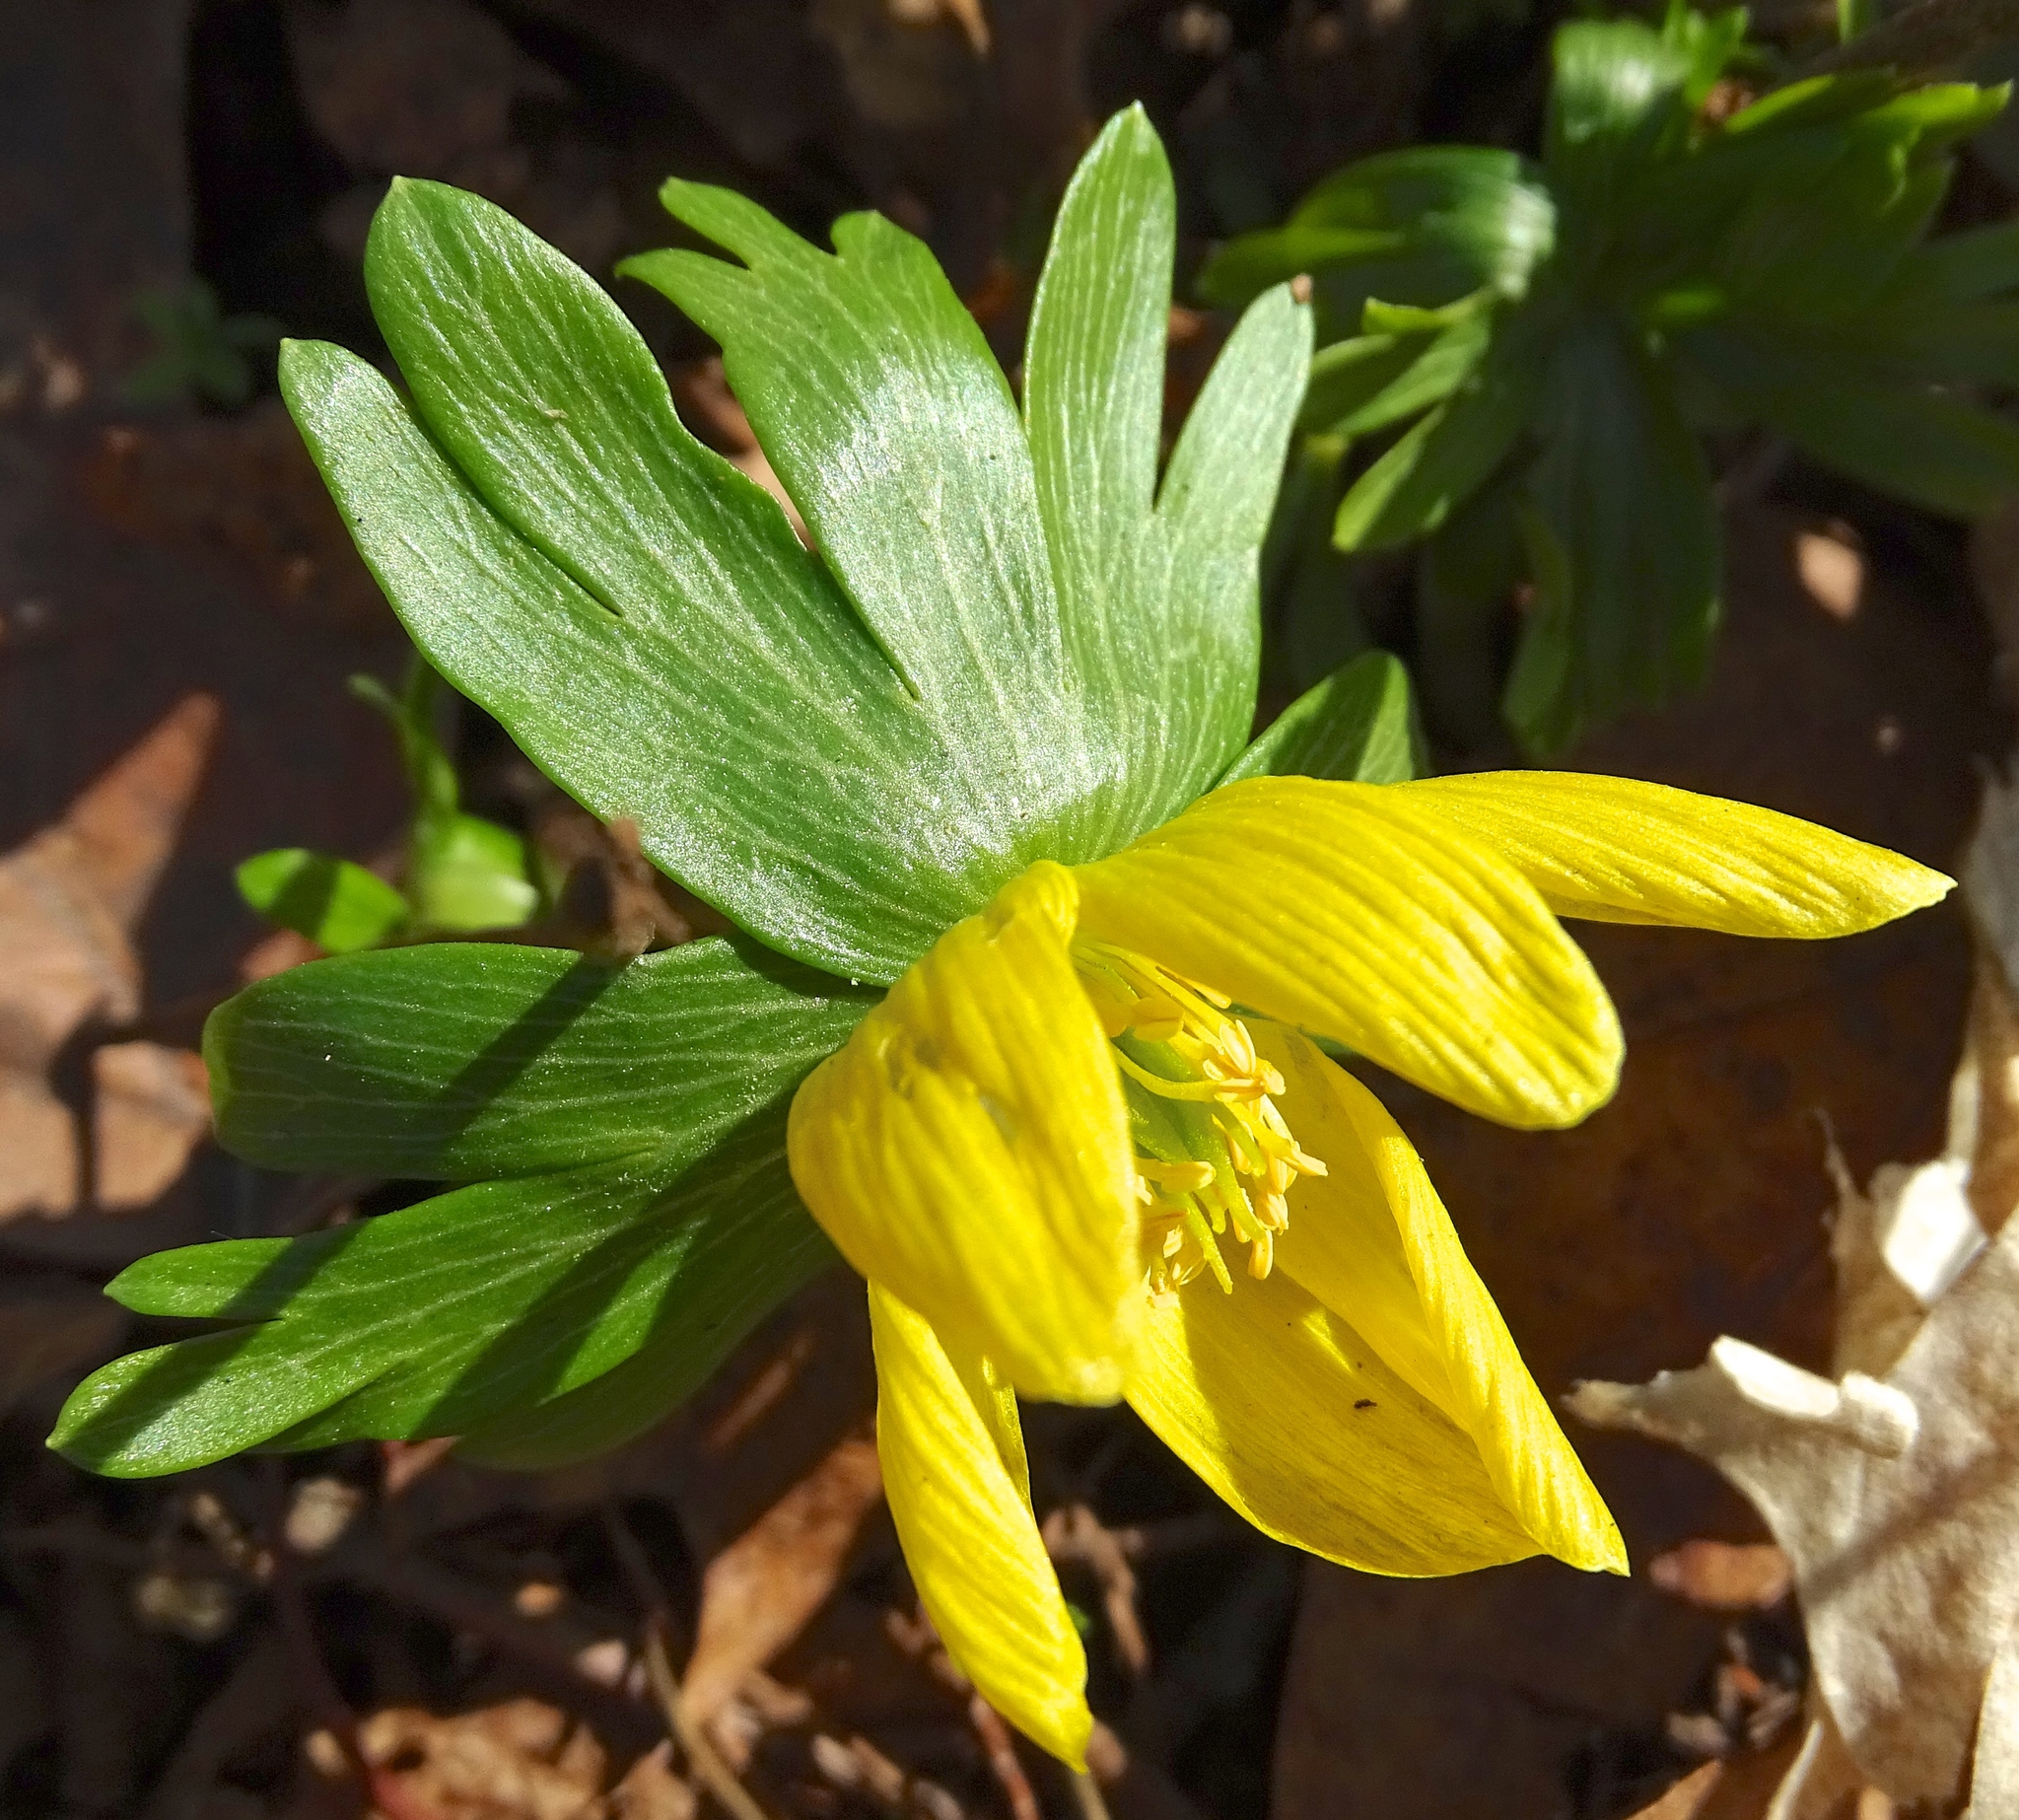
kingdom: Plantae
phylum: Tracheophyta
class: Magnoliopsida
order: Ranunculales
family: Ranunculaceae
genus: Eranthis
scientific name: Eranthis hyemalis
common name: Winter aconite
